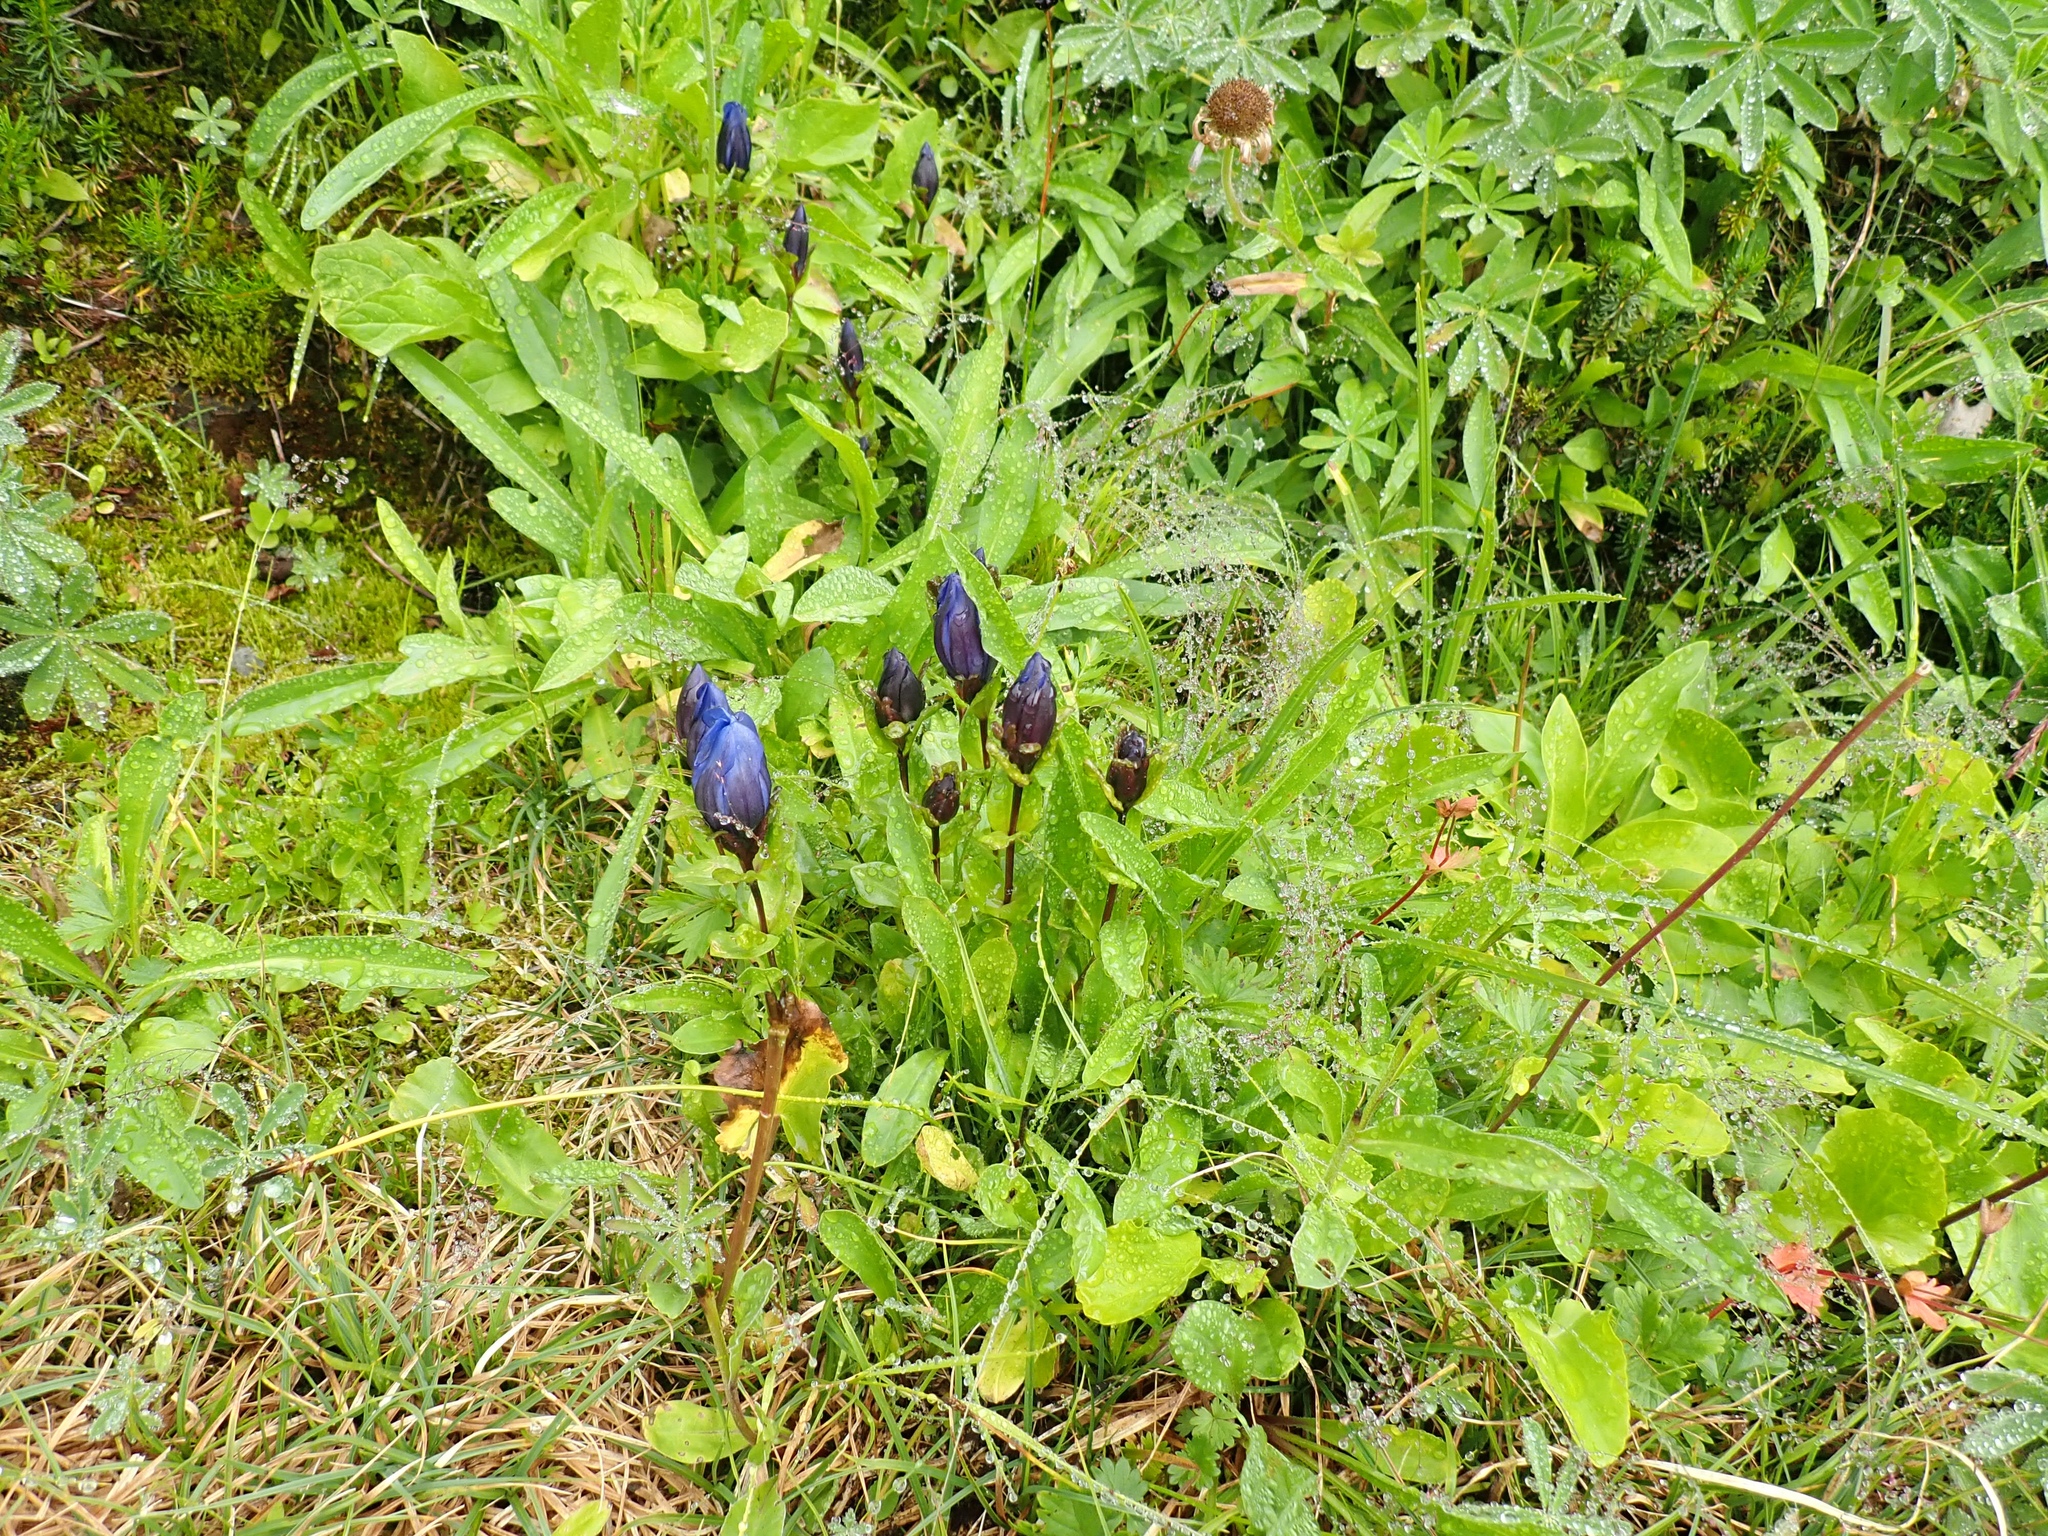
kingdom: Plantae
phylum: Tracheophyta
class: Magnoliopsida
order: Gentianales
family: Gentianaceae
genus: Gentiana
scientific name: Gentiana calycosa
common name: Rainier pleated gentian
